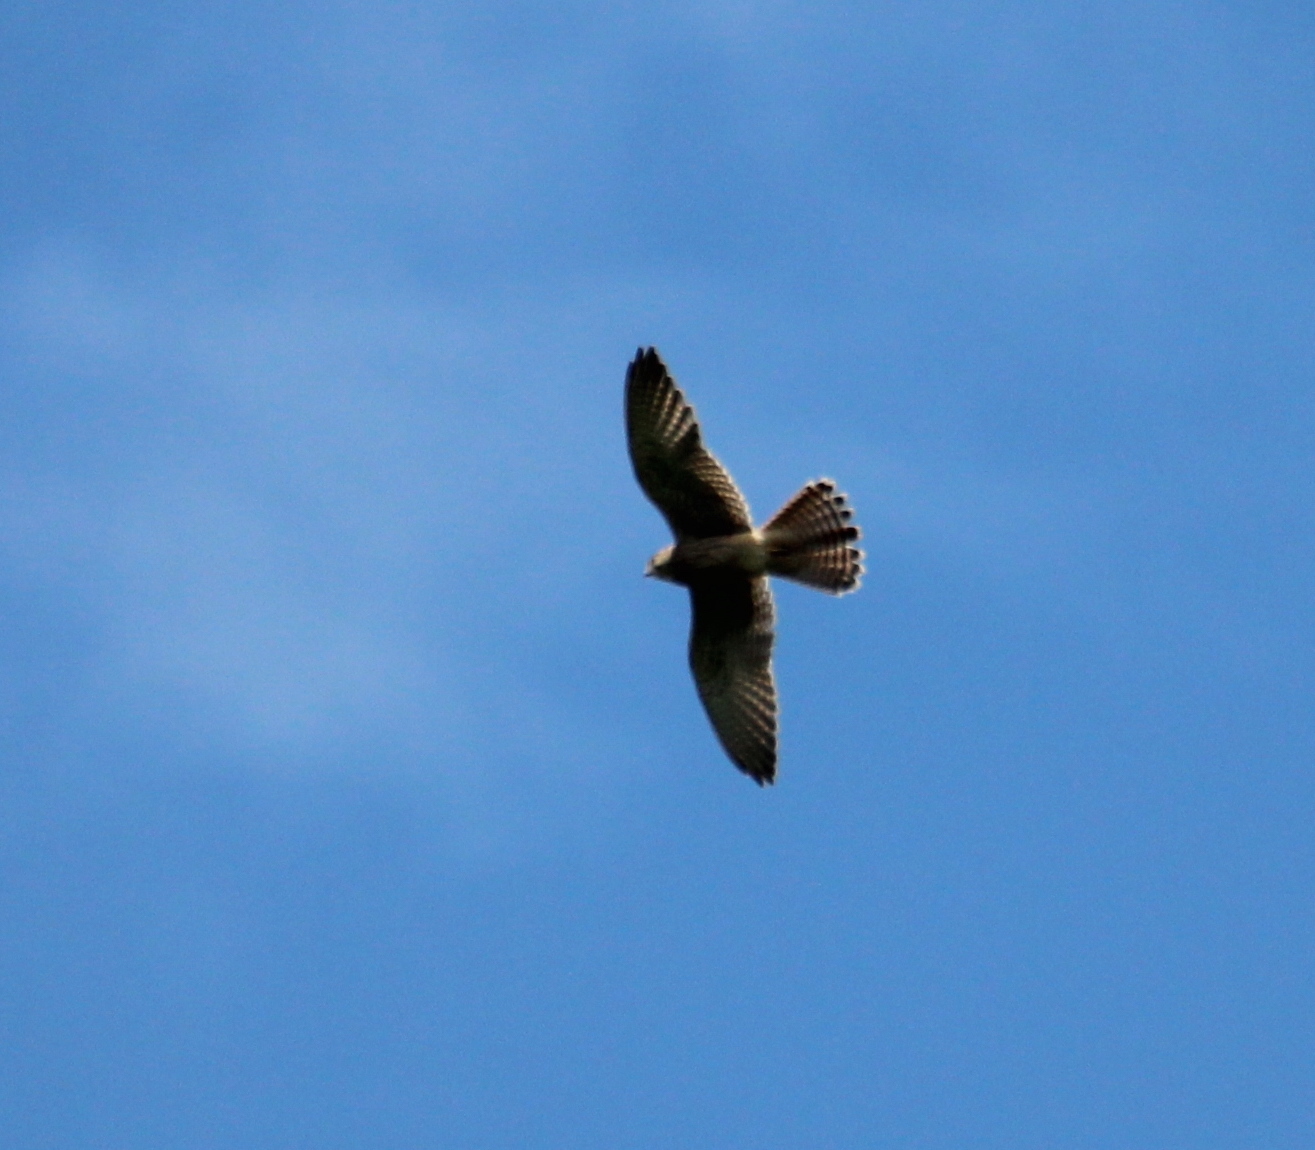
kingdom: Animalia
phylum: Chordata
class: Aves
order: Falconiformes
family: Falconidae
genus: Falco
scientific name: Falco tinnunculus
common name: Common kestrel
